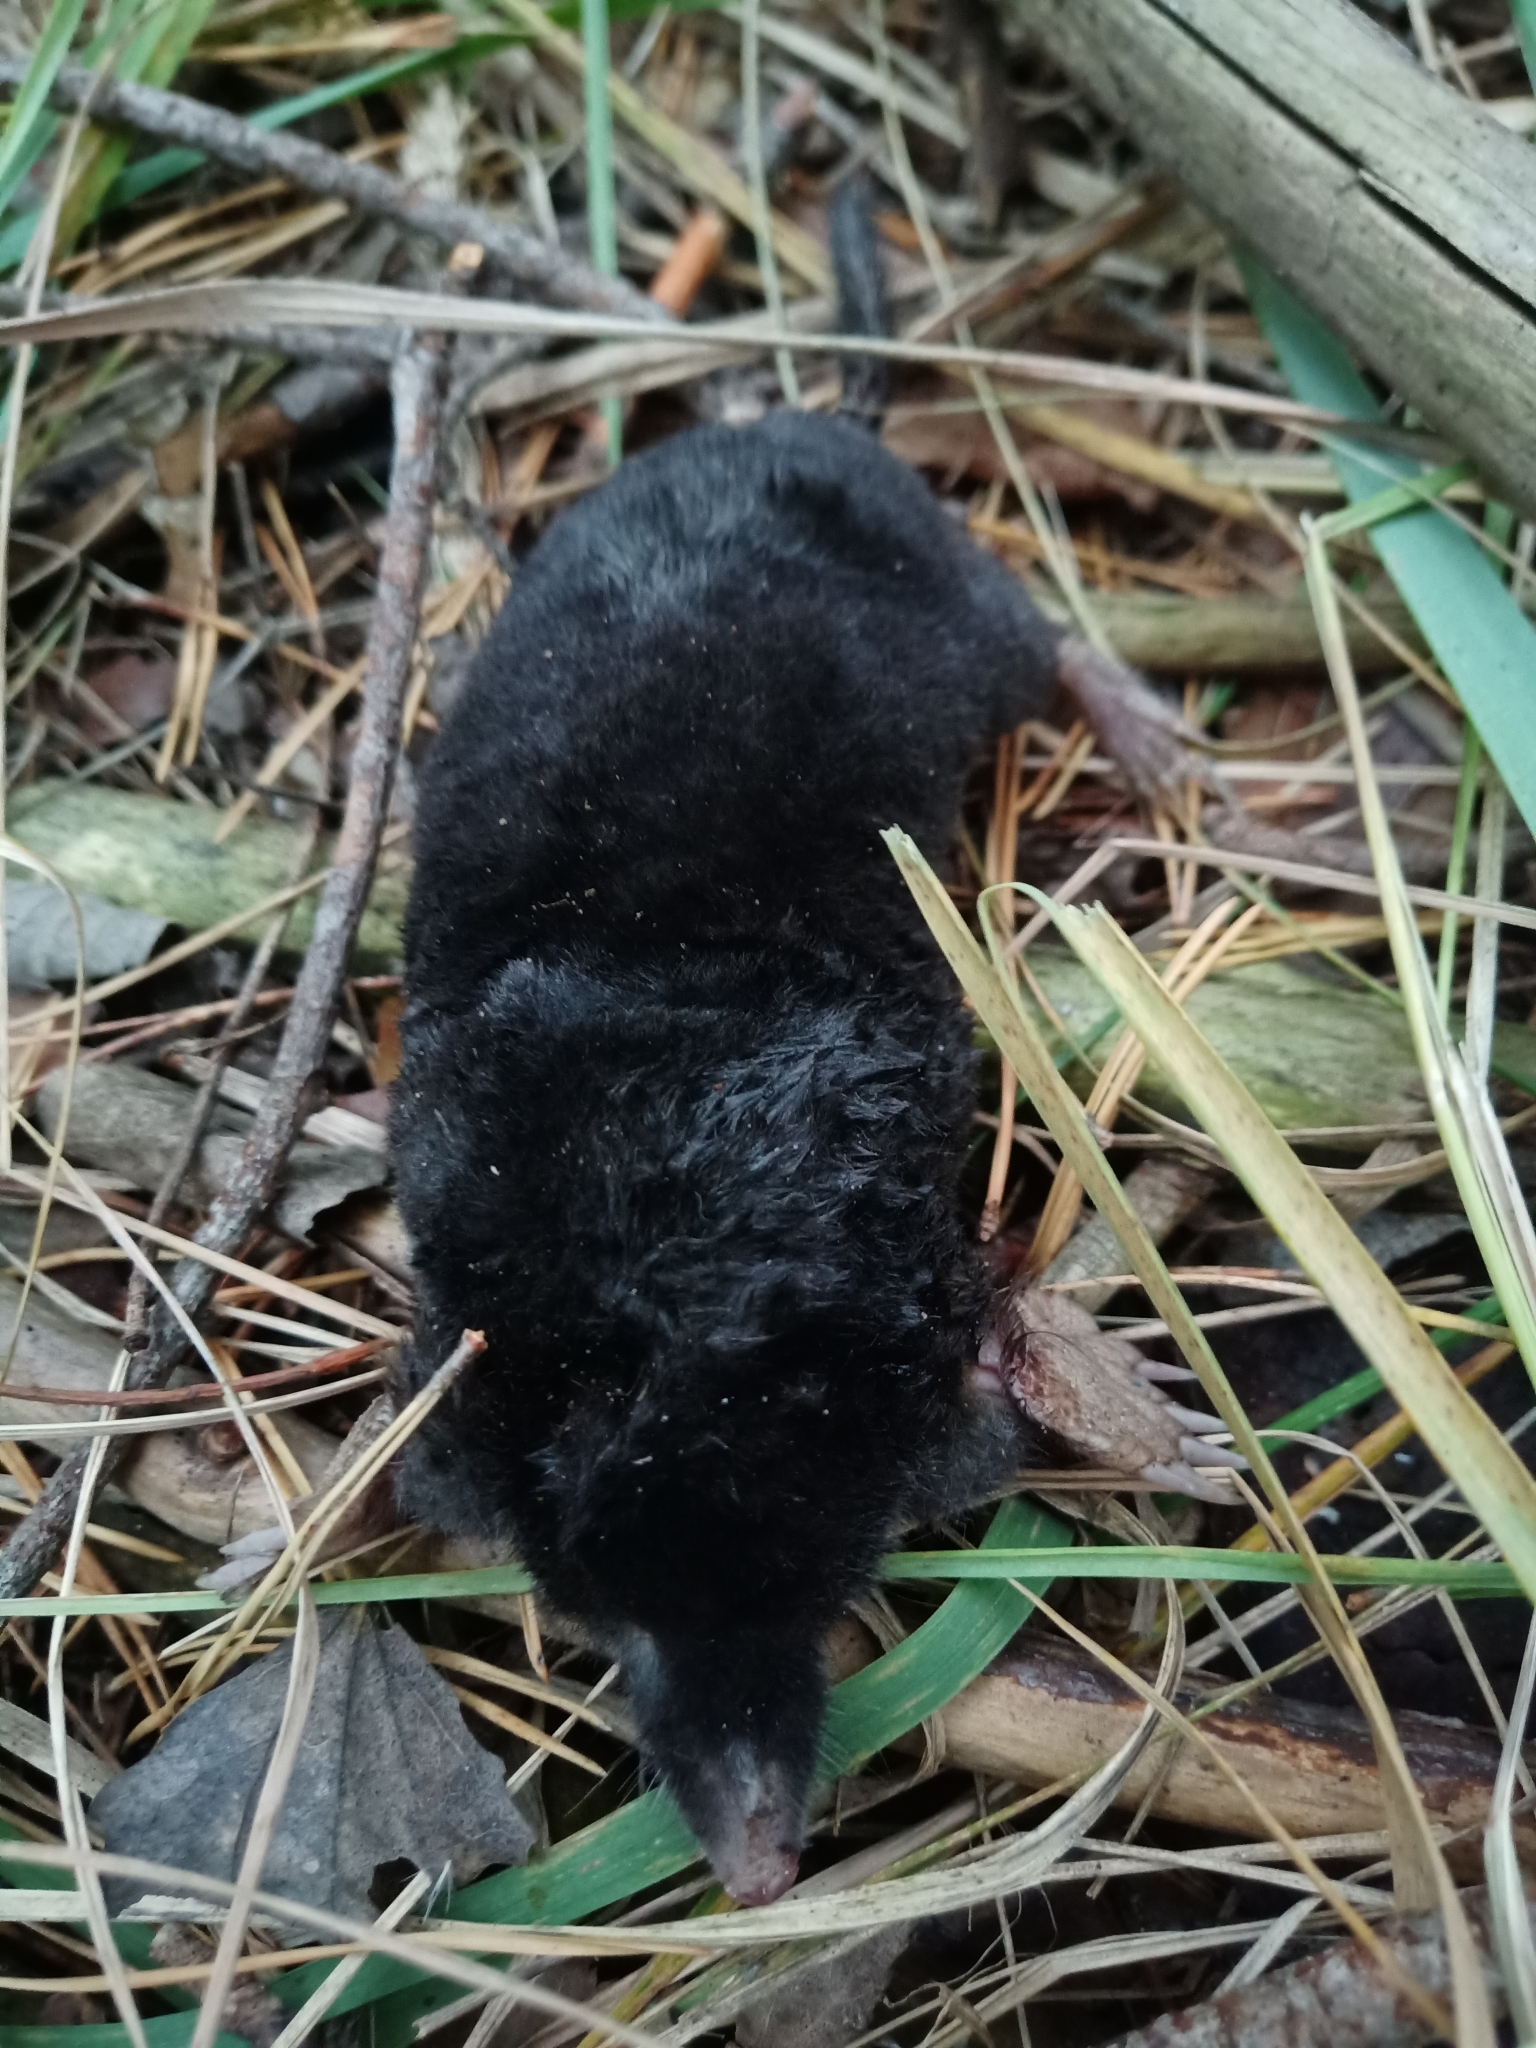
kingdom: Animalia
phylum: Chordata
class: Mammalia
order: Soricomorpha
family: Talpidae
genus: Talpa
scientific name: Talpa europaea
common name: European mole
